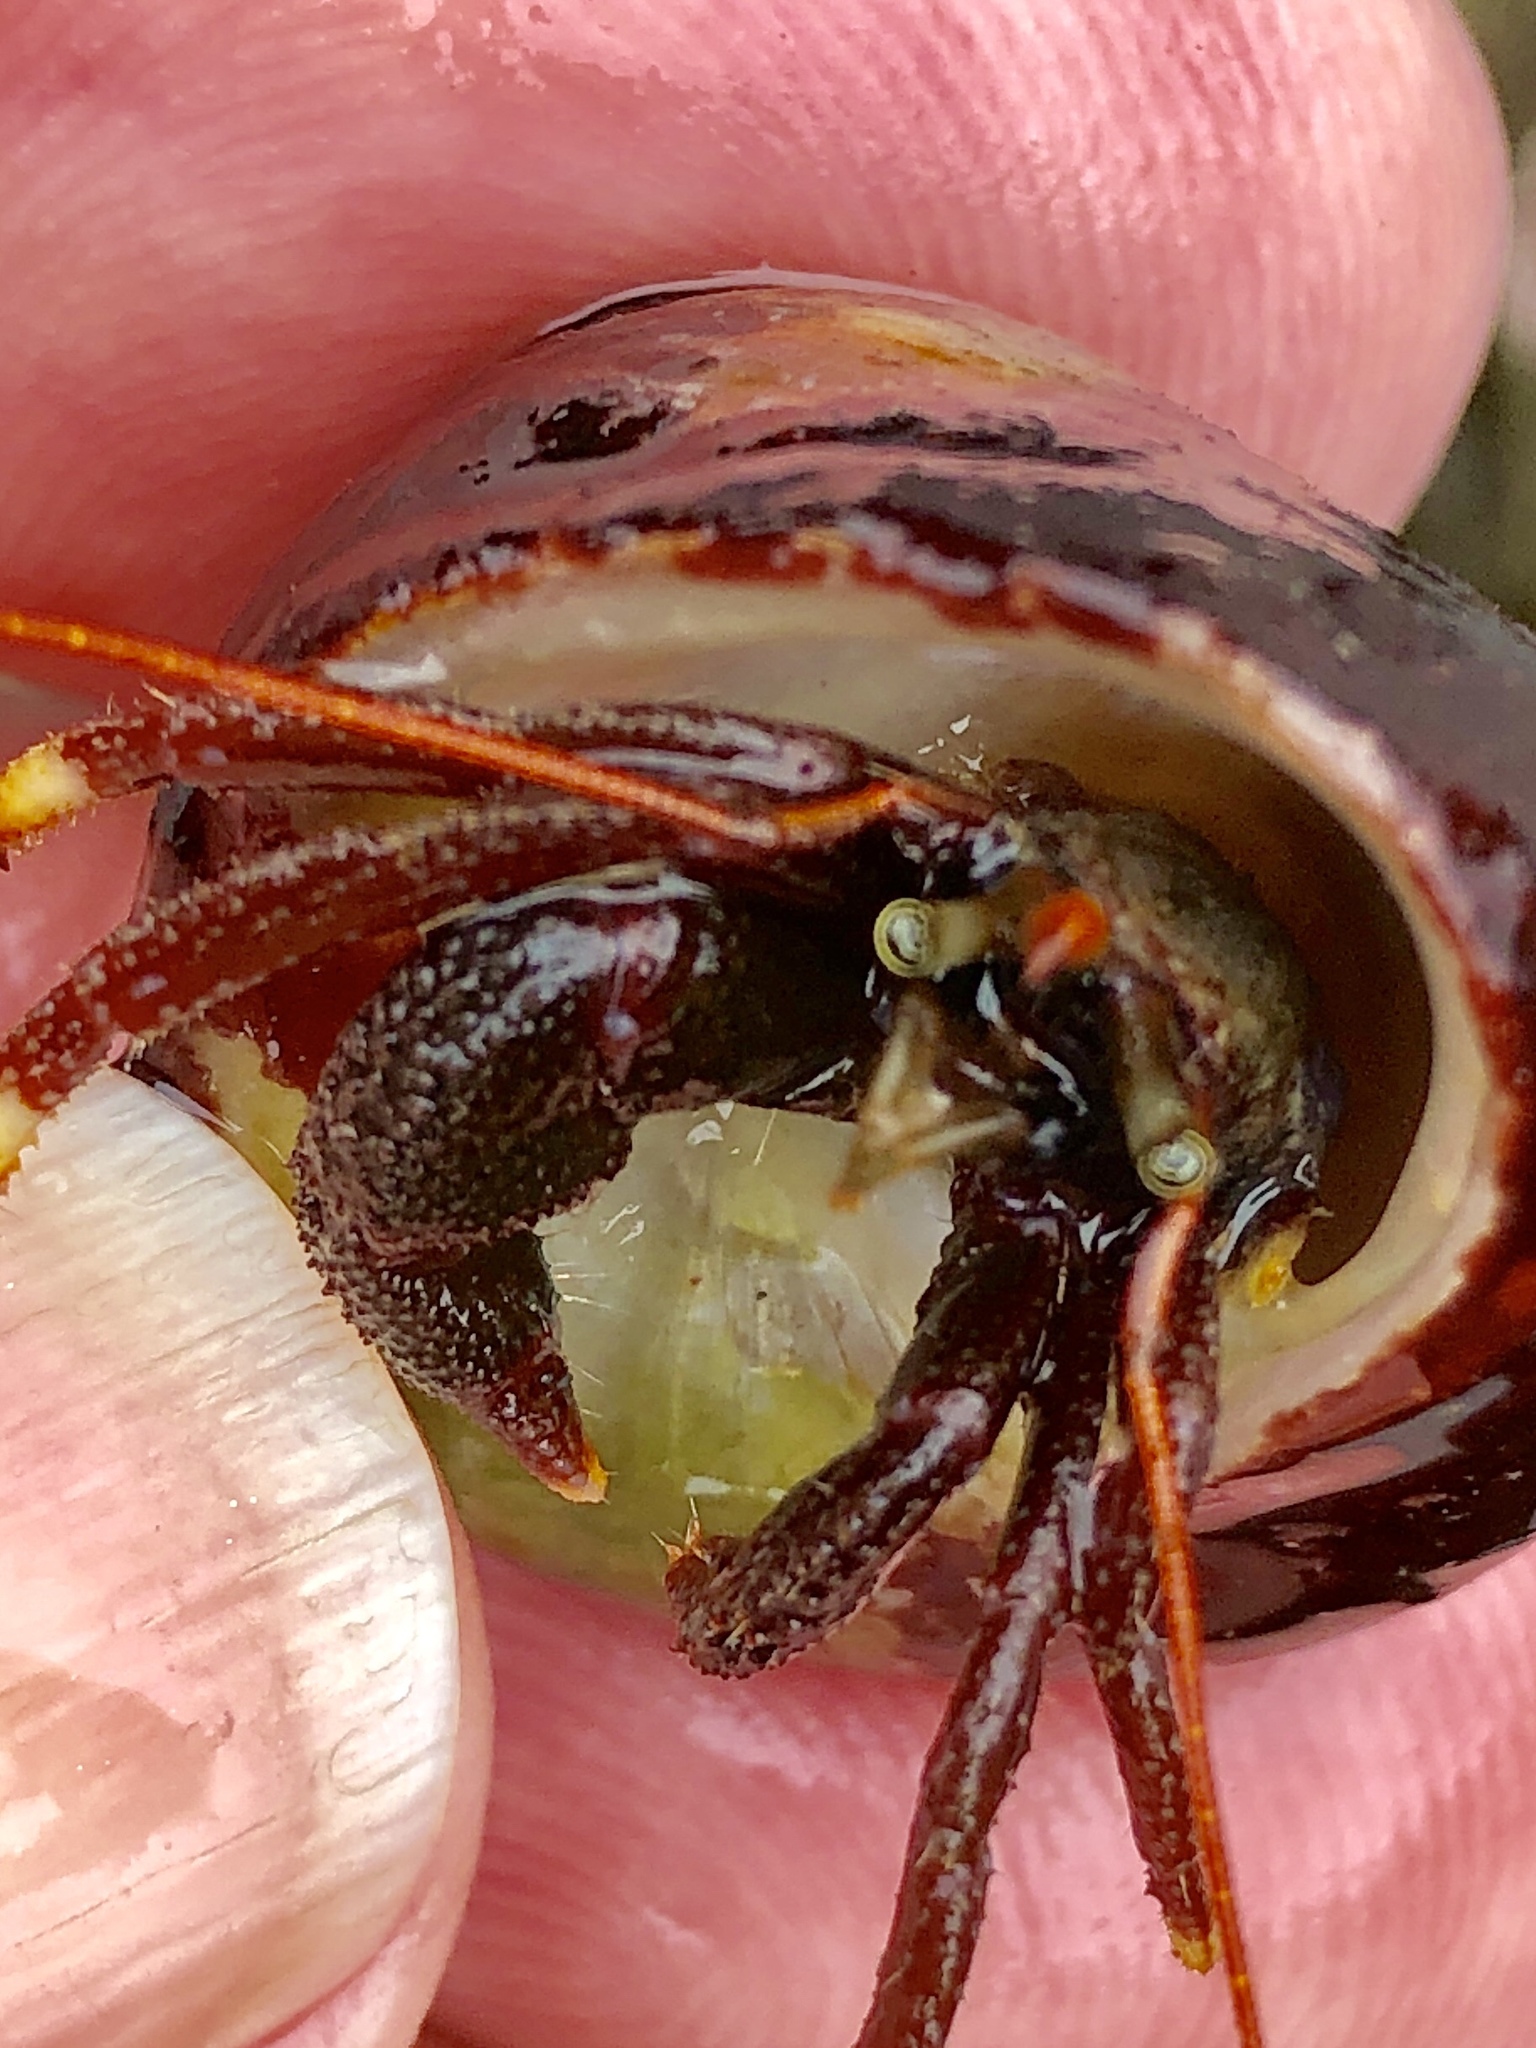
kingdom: Animalia
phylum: Arthropoda
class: Malacostraca
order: Decapoda
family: Paguridae
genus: Pagurus
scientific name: Pagurus hemphilli
